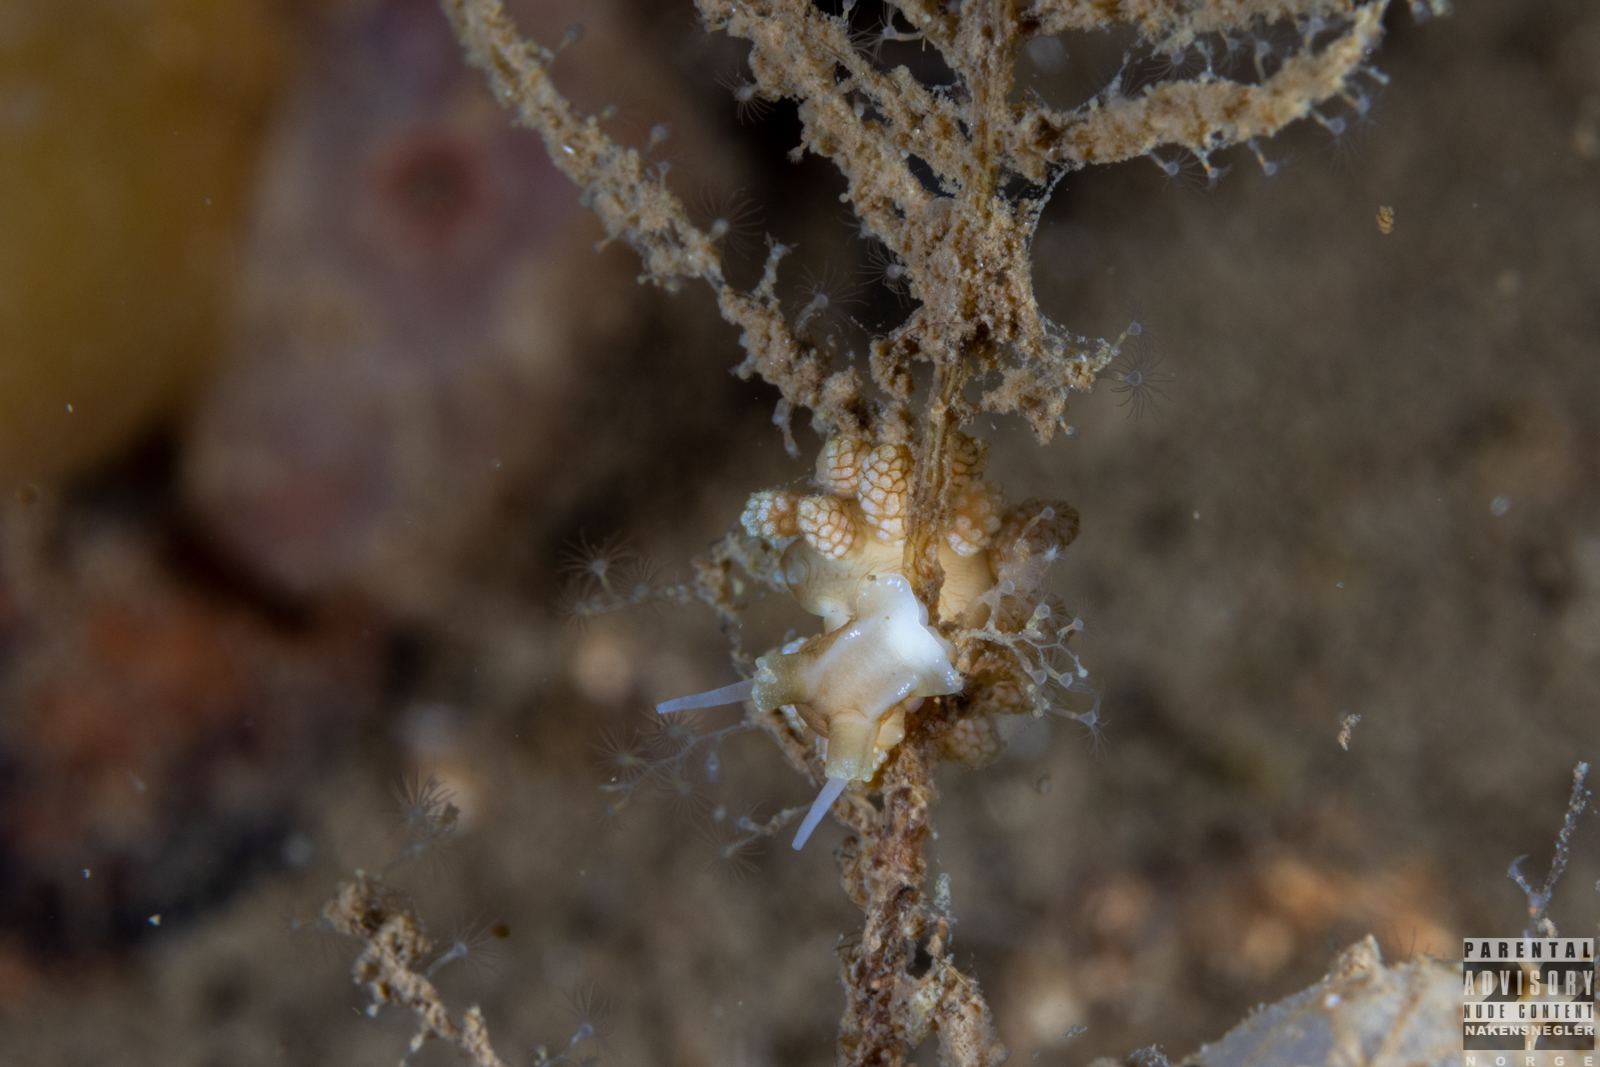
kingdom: Animalia
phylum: Mollusca
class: Gastropoda
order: Nudibranchia
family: Dotidae
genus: Doto
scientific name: Doto fragilis
